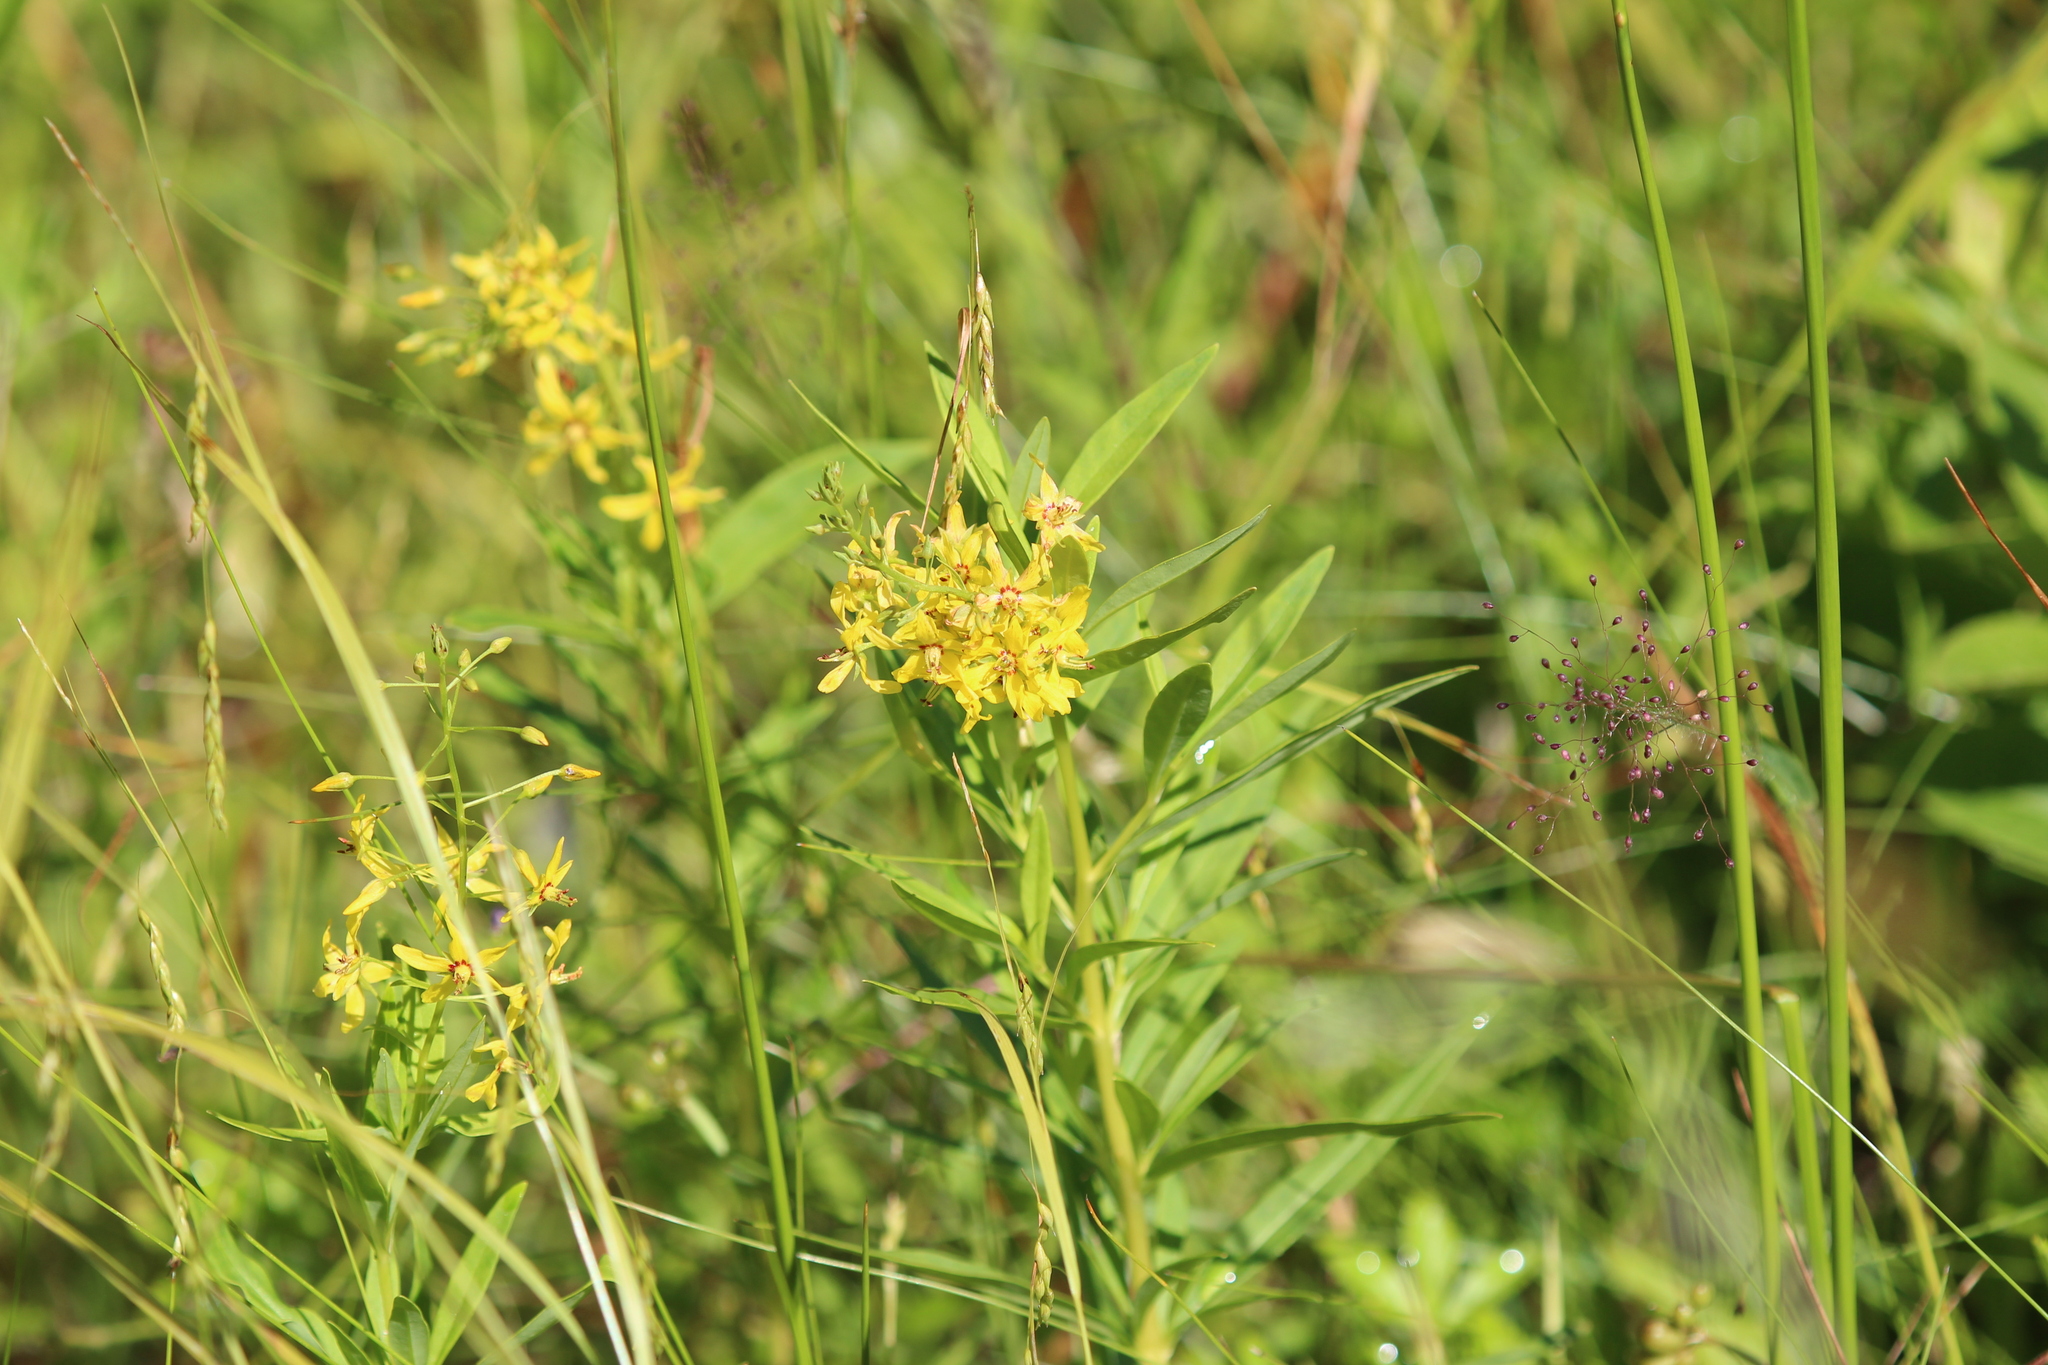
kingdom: Plantae
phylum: Tracheophyta
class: Magnoliopsida
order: Ericales
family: Primulaceae
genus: Lysimachia
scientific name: Lysimachia terrestris
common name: Lake loosestrife
